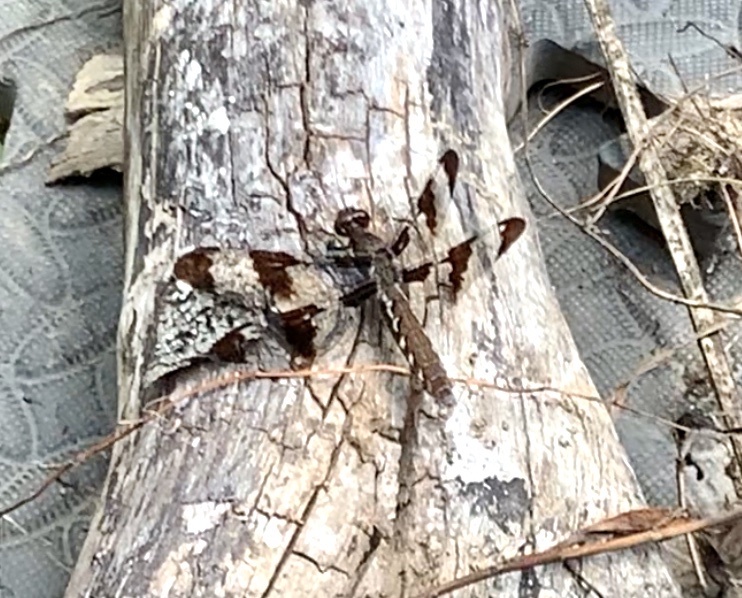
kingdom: Animalia
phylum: Arthropoda
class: Insecta
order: Odonata
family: Libellulidae
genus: Plathemis
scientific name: Plathemis lydia
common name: Common whitetail
